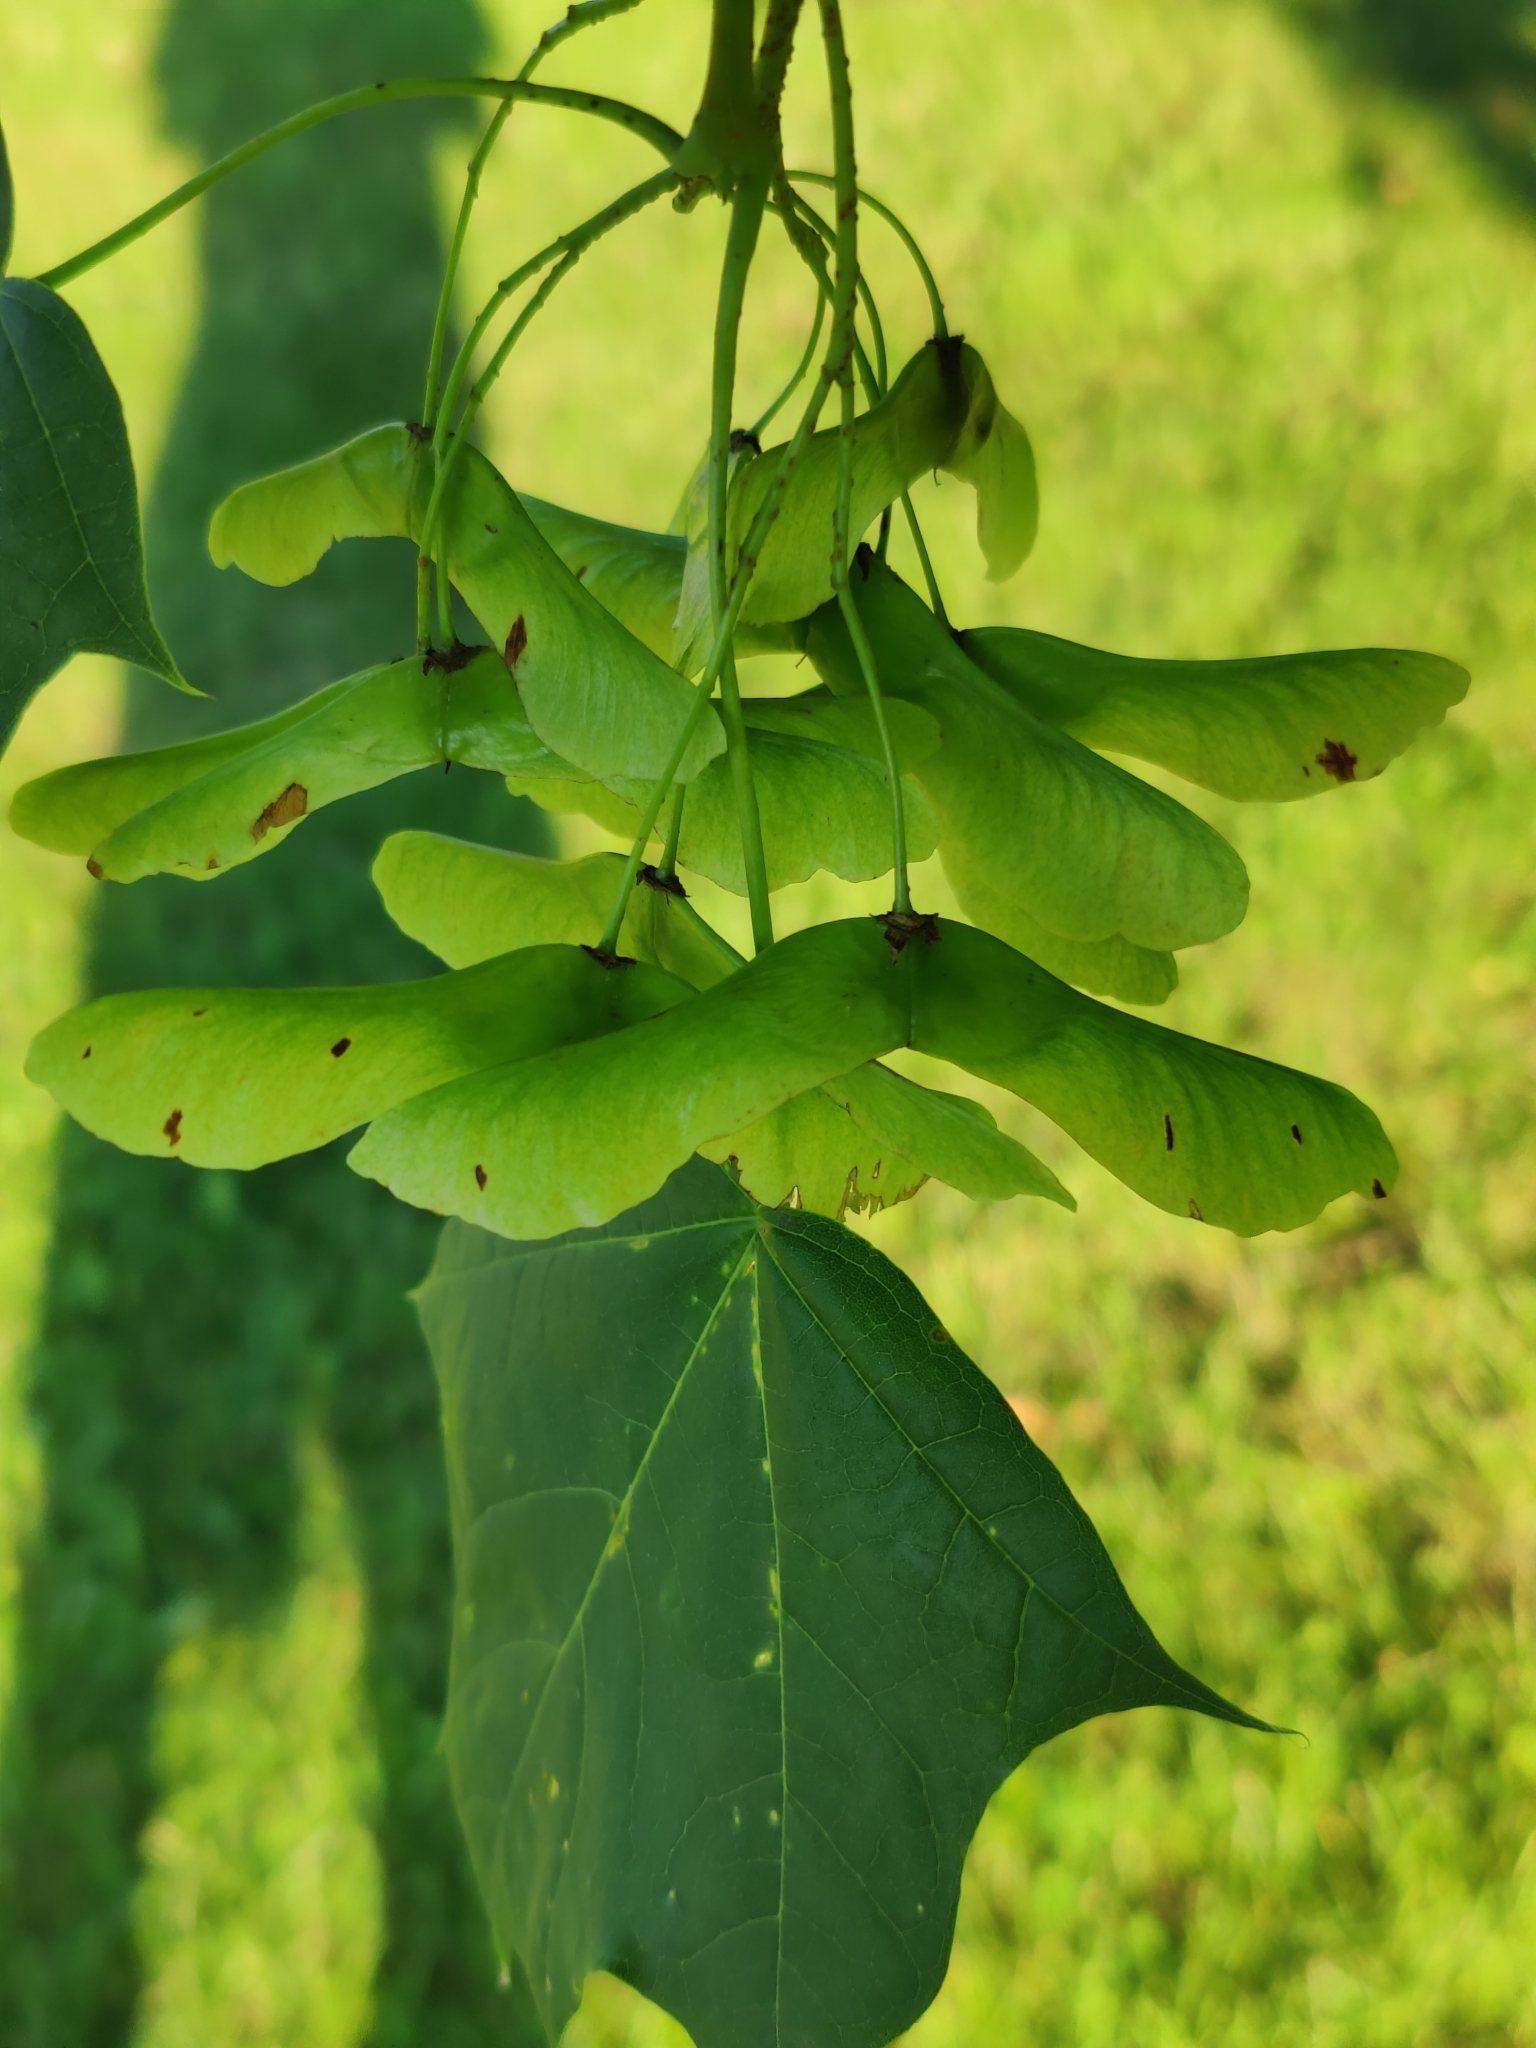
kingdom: Plantae
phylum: Tracheophyta
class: Magnoliopsida
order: Sapindales
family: Sapindaceae
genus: Acer
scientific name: Acer platanoides
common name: Norway maple
